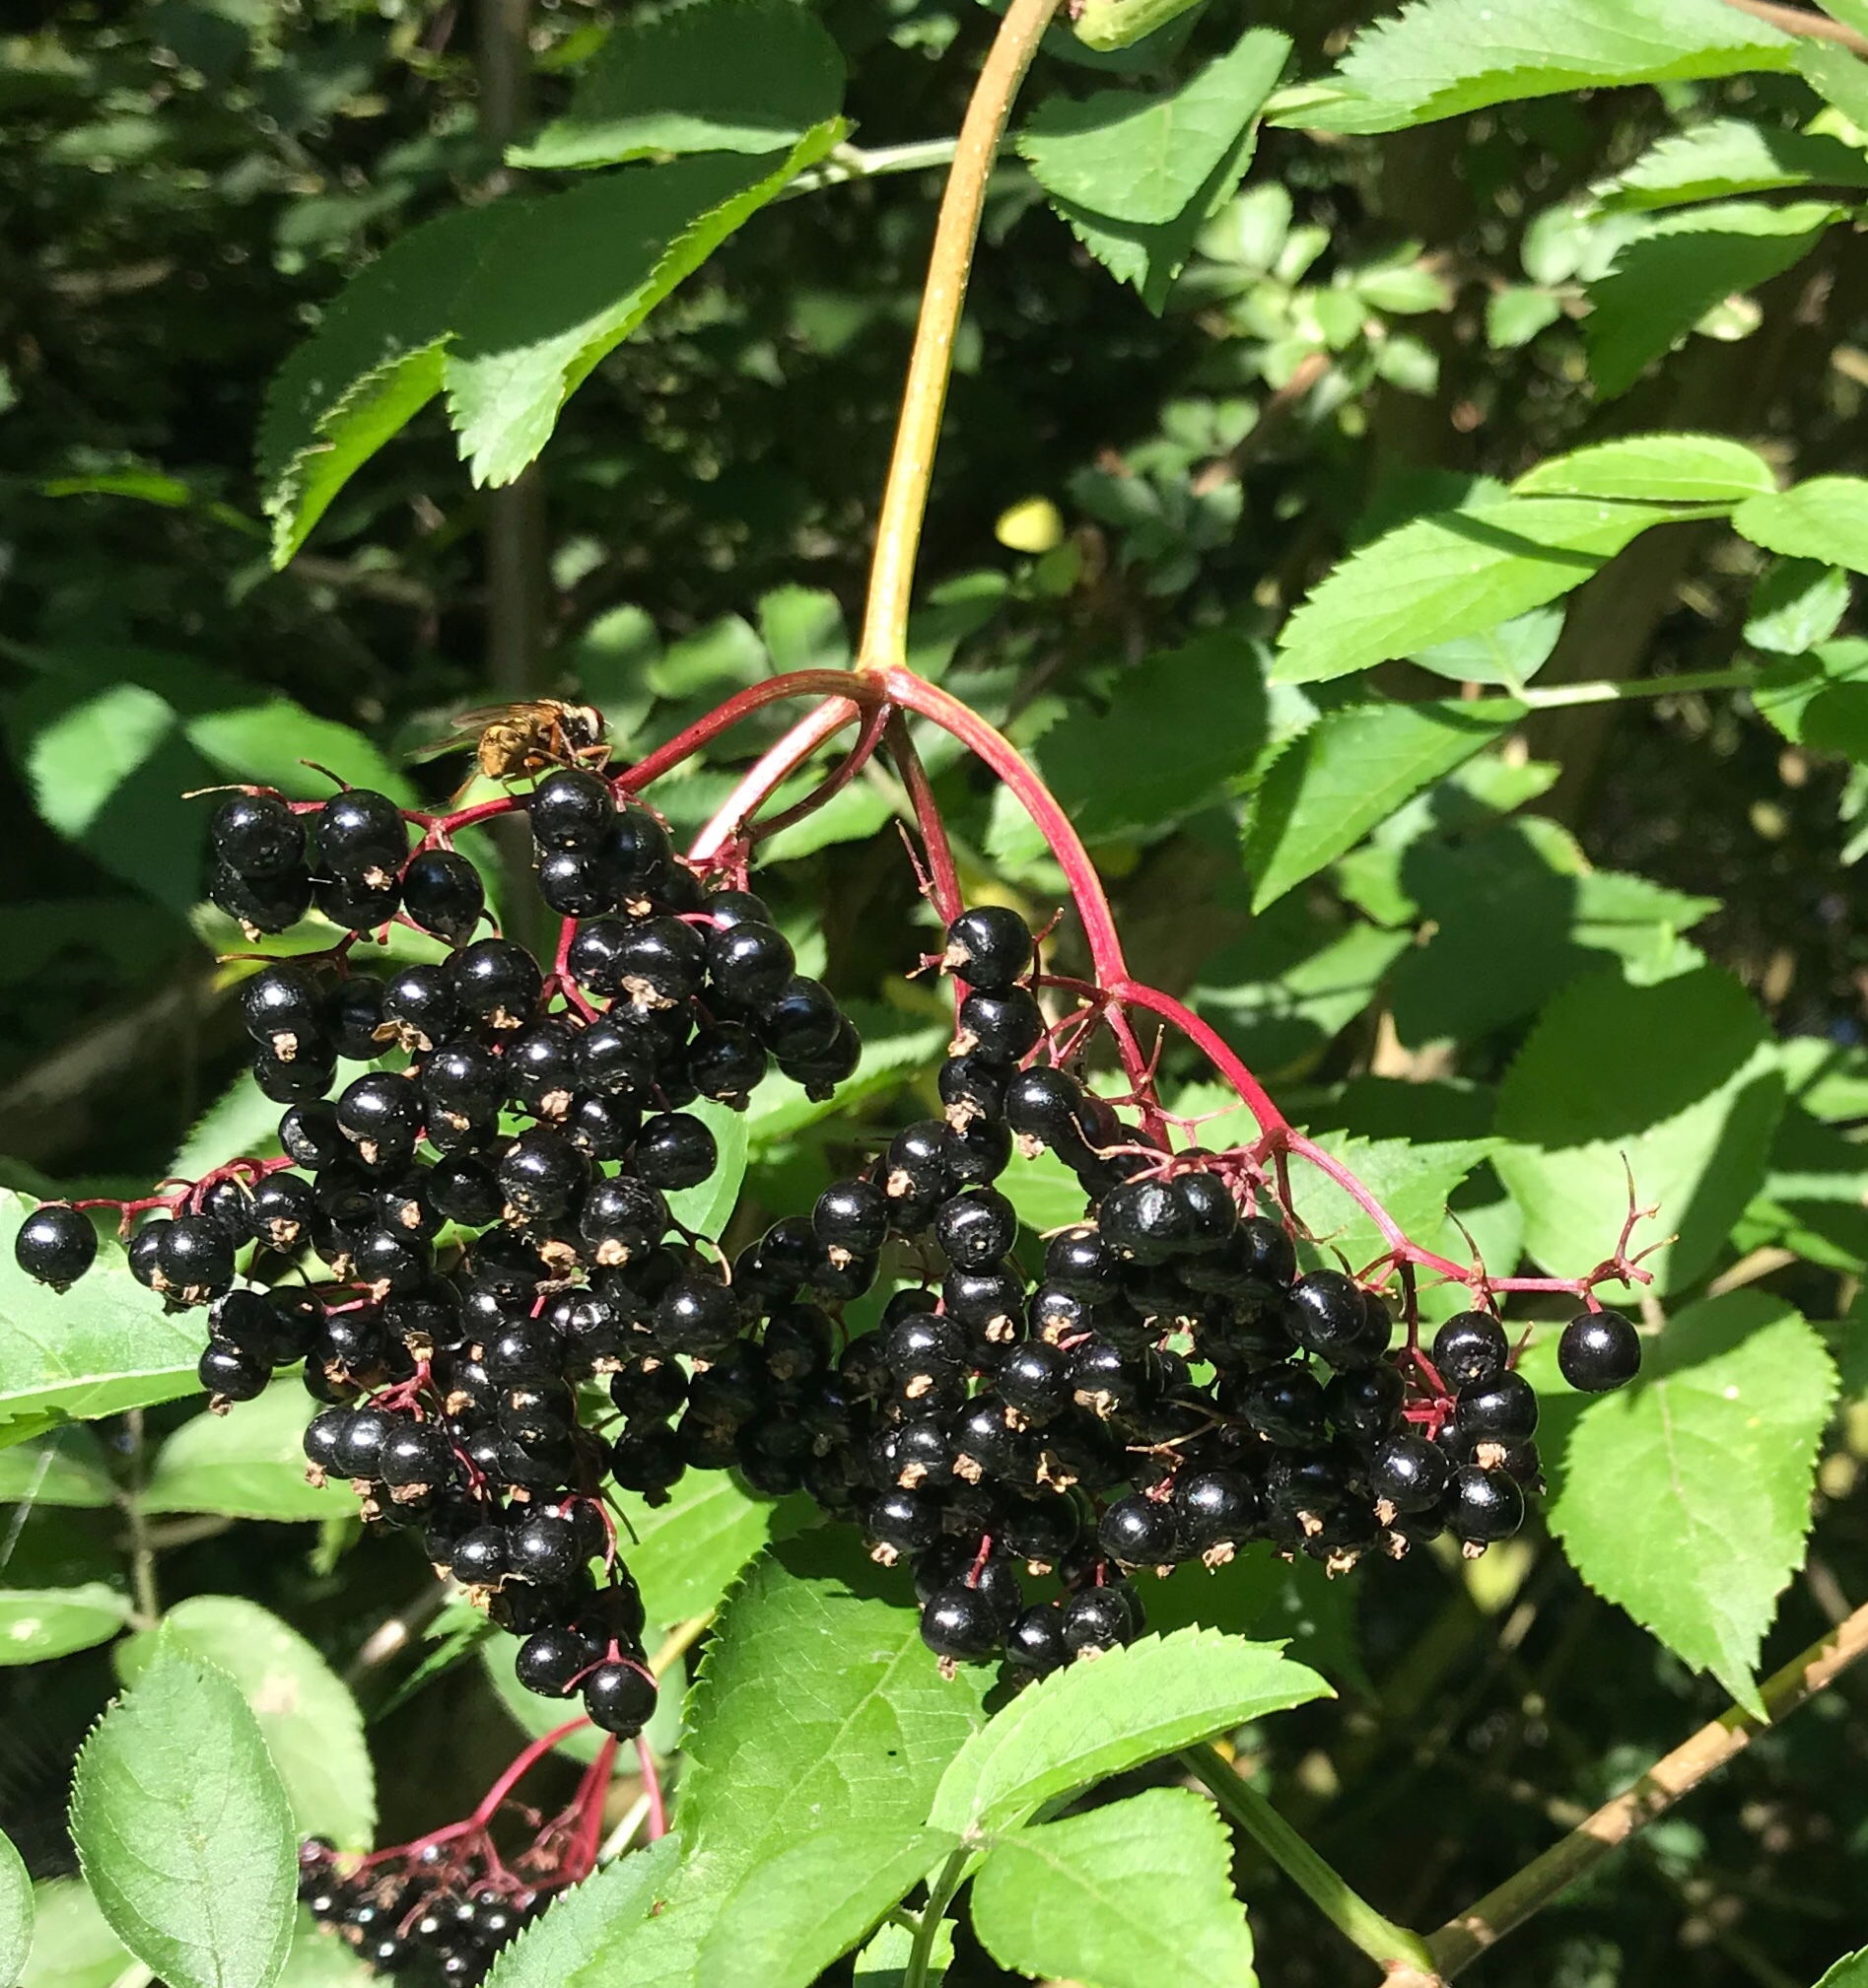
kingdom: Plantae
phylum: Tracheophyta
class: Magnoliopsida
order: Dipsacales
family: Viburnaceae
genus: Sambucus
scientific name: Sambucus nigra
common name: Elder
